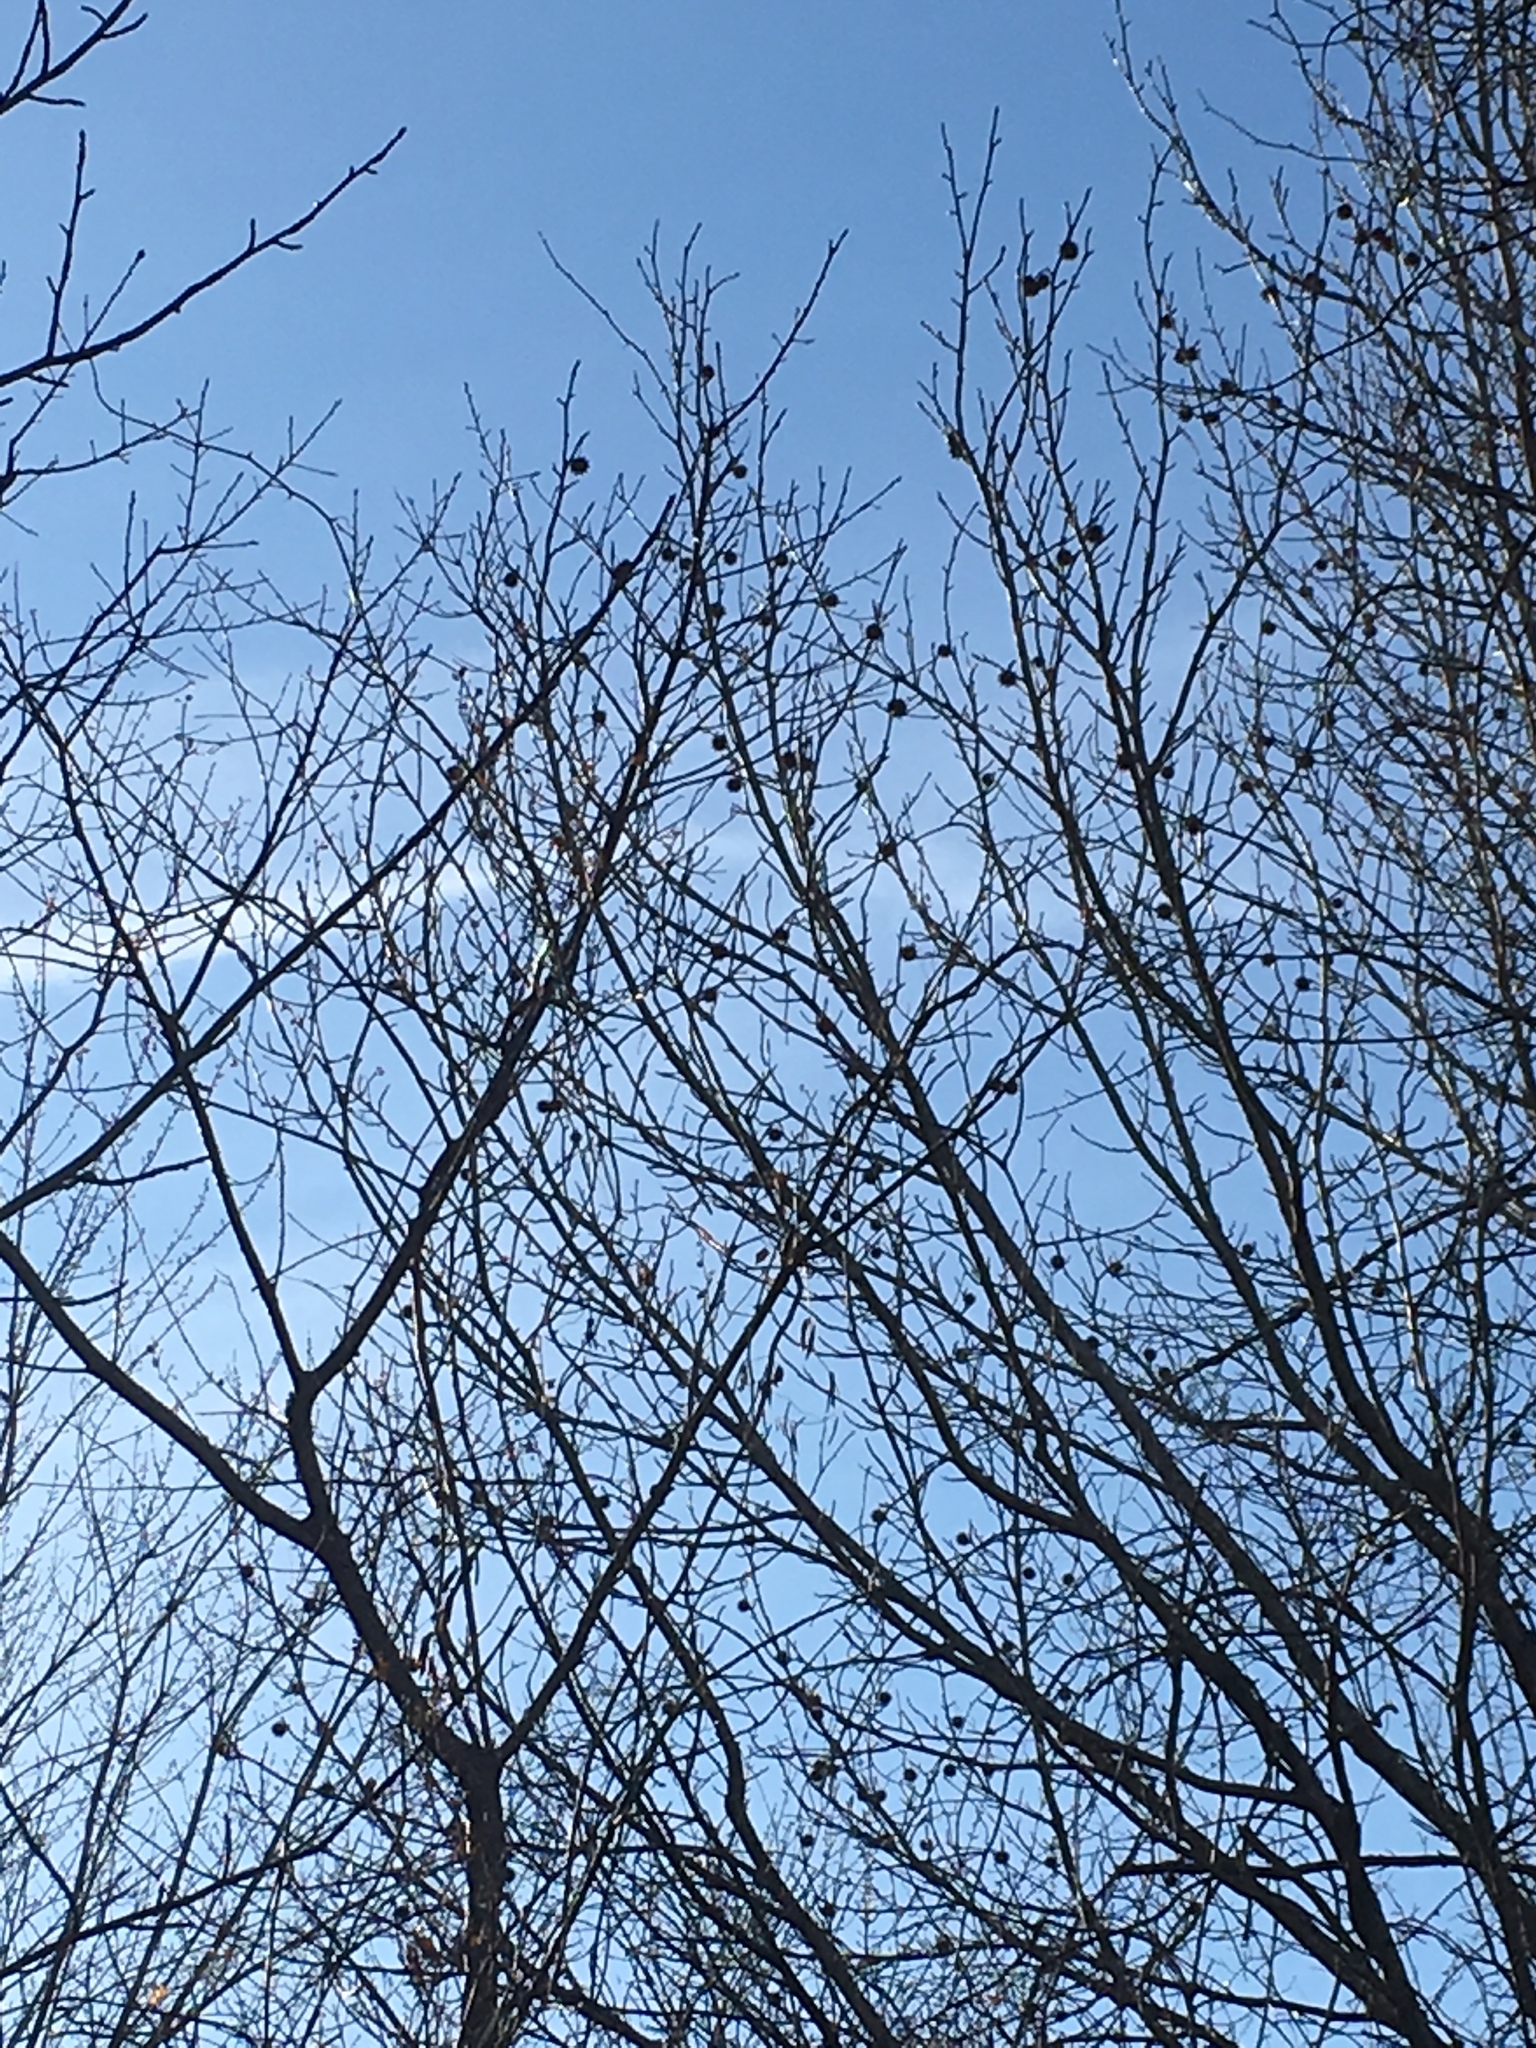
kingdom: Plantae
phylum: Tracheophyta
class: Magnoliopsida
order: Saxifragales
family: Altingiaceae
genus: Liquidambar
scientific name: Liquidambar styraciflua
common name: Sweet gum
